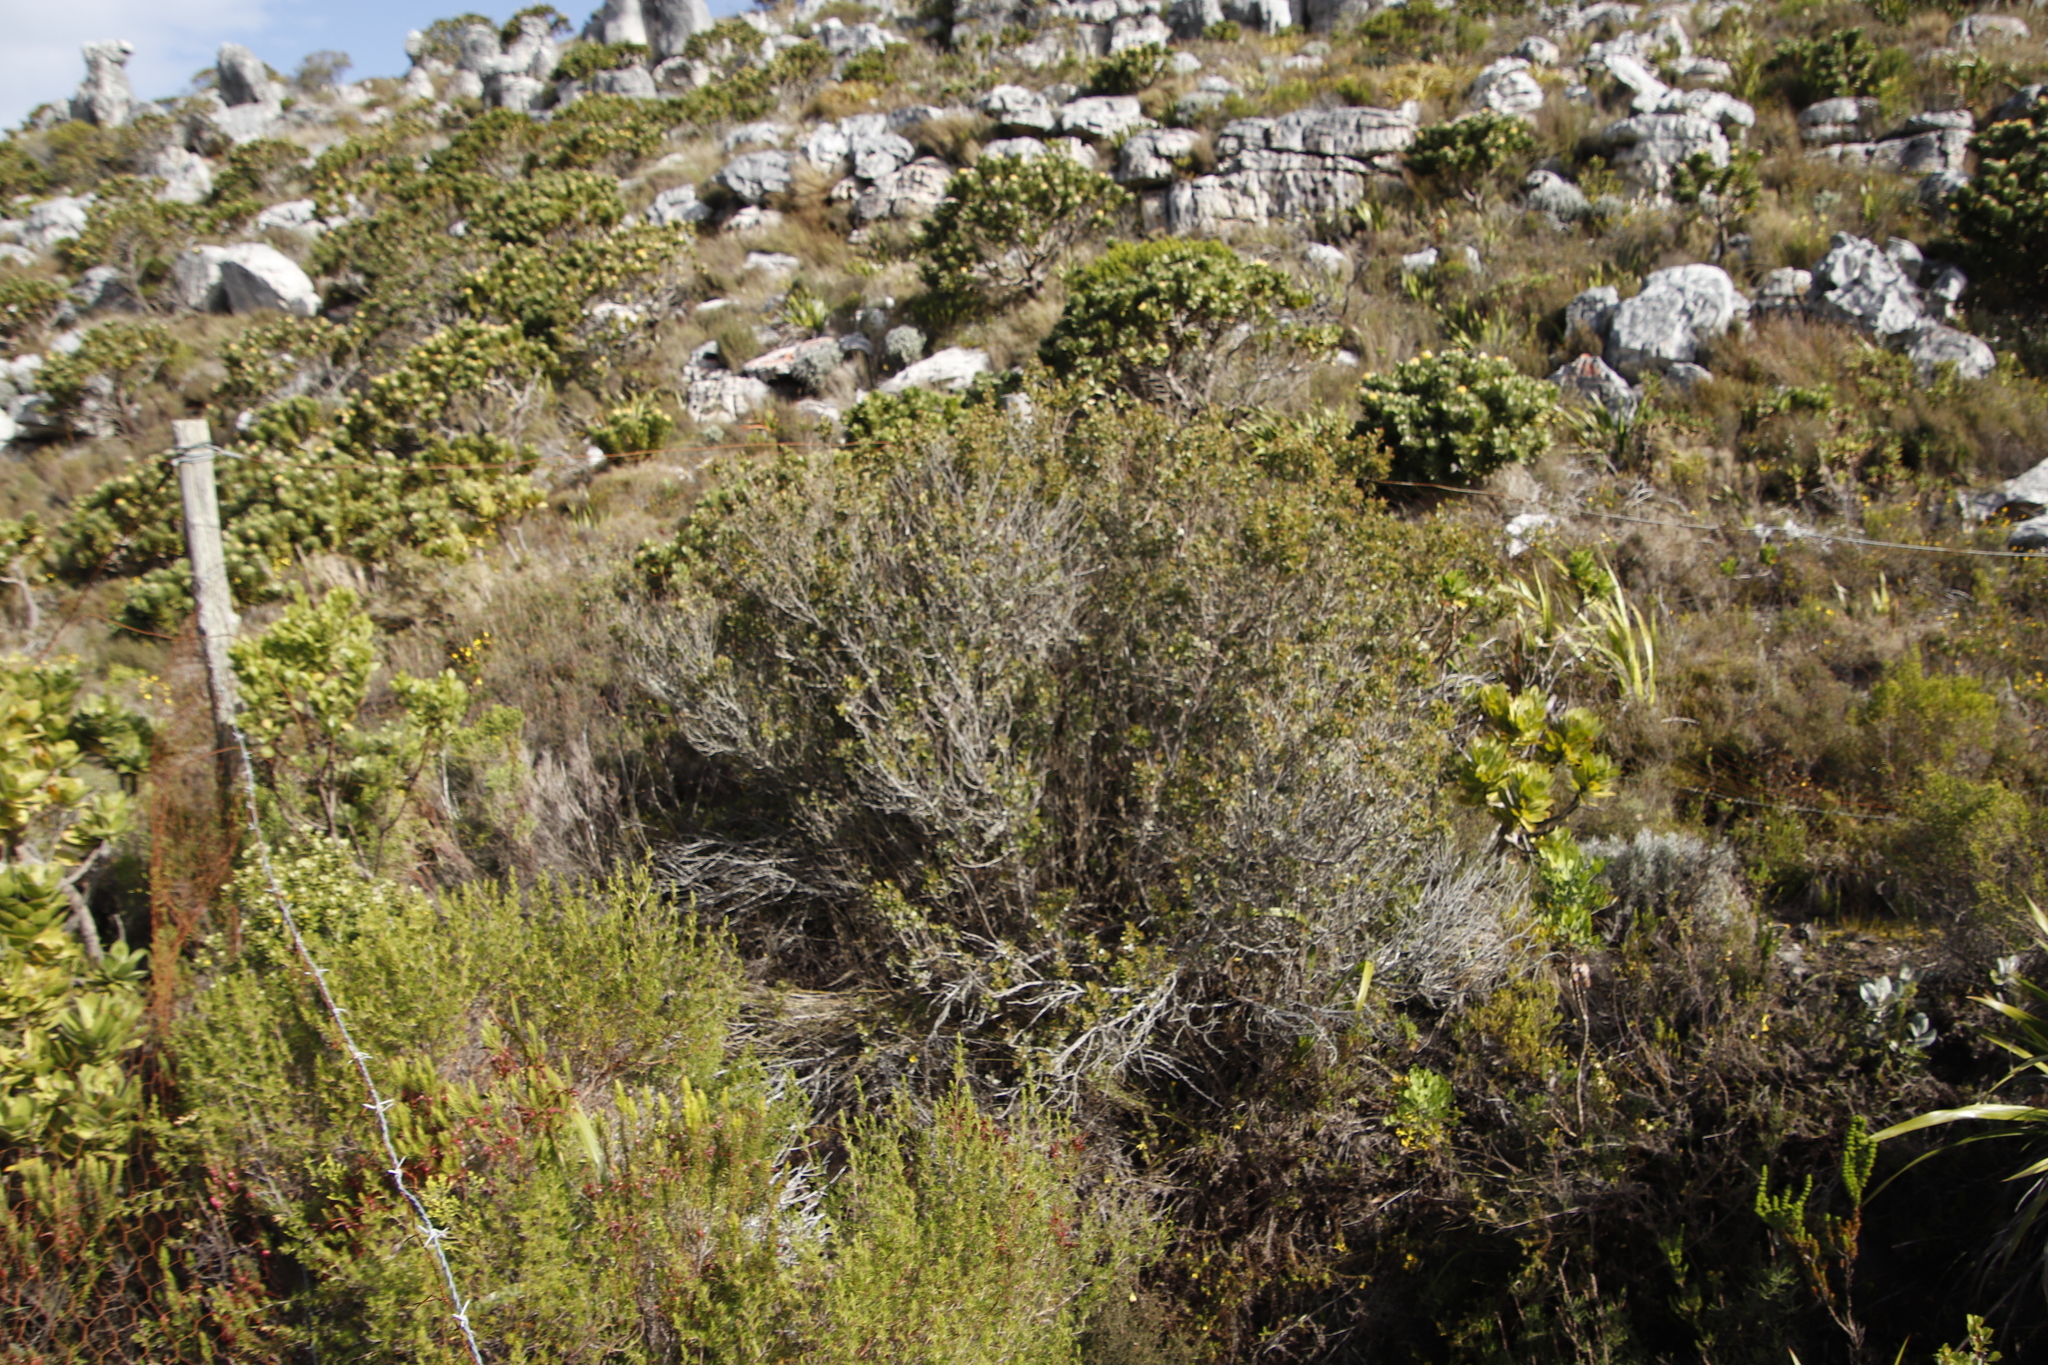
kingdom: Plantae
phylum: Tracheophyta
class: Magnoliopsida
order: Sapindales
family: Anacardiaceae
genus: Searsia
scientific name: Searsia lucida
